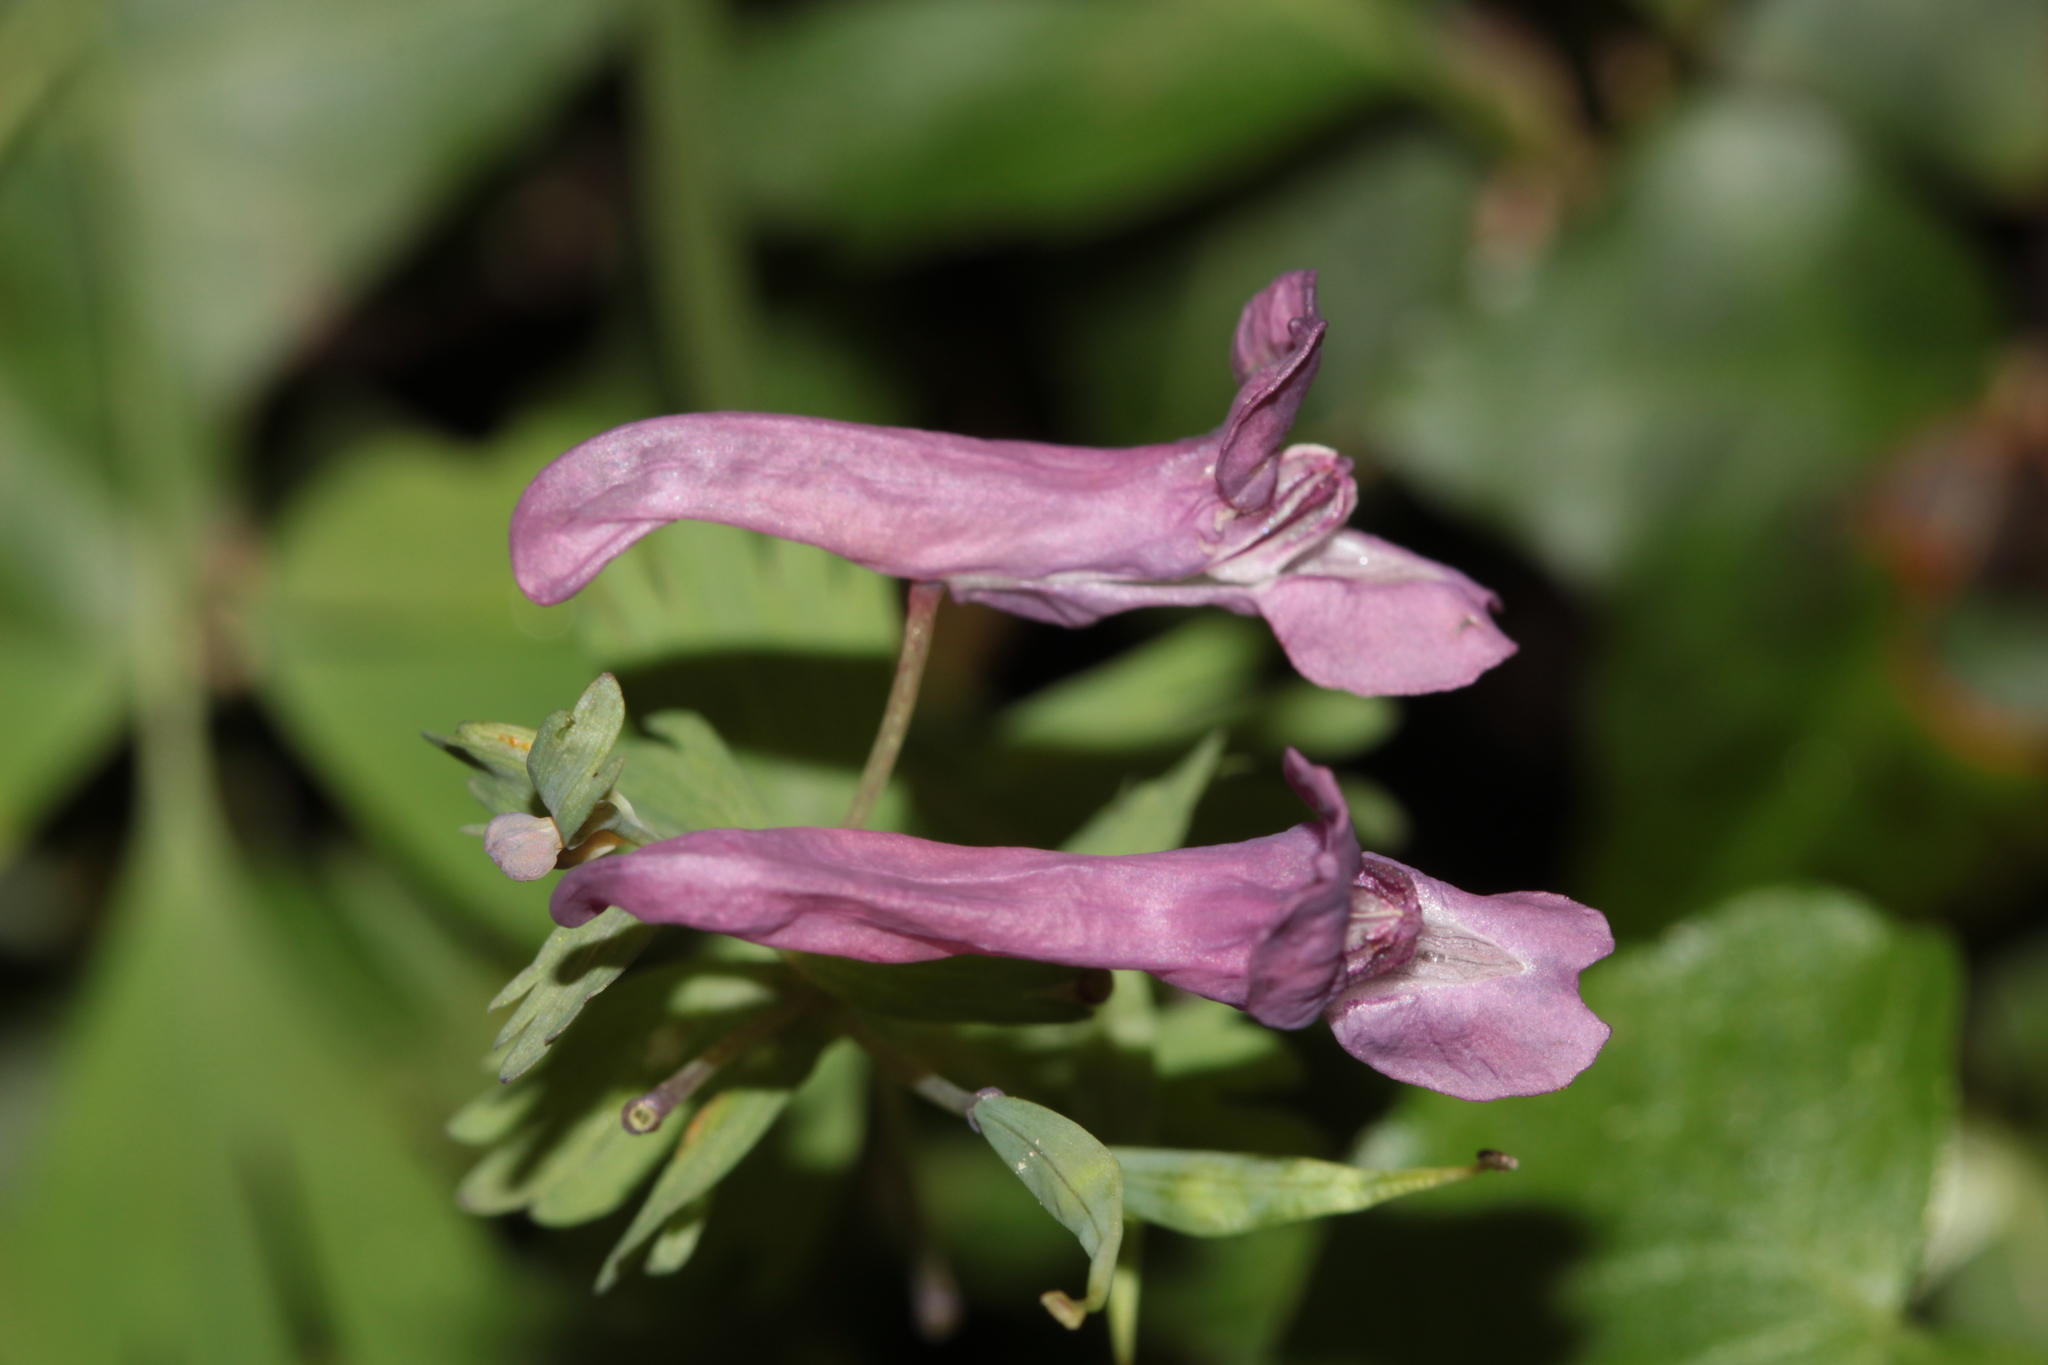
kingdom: Plantae
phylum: Tracheophyta
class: Magnoliopsida
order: Ranunculales
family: Papaveraceae
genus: Corydalis
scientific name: Corydalis solida
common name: Bird-in-a-bush
